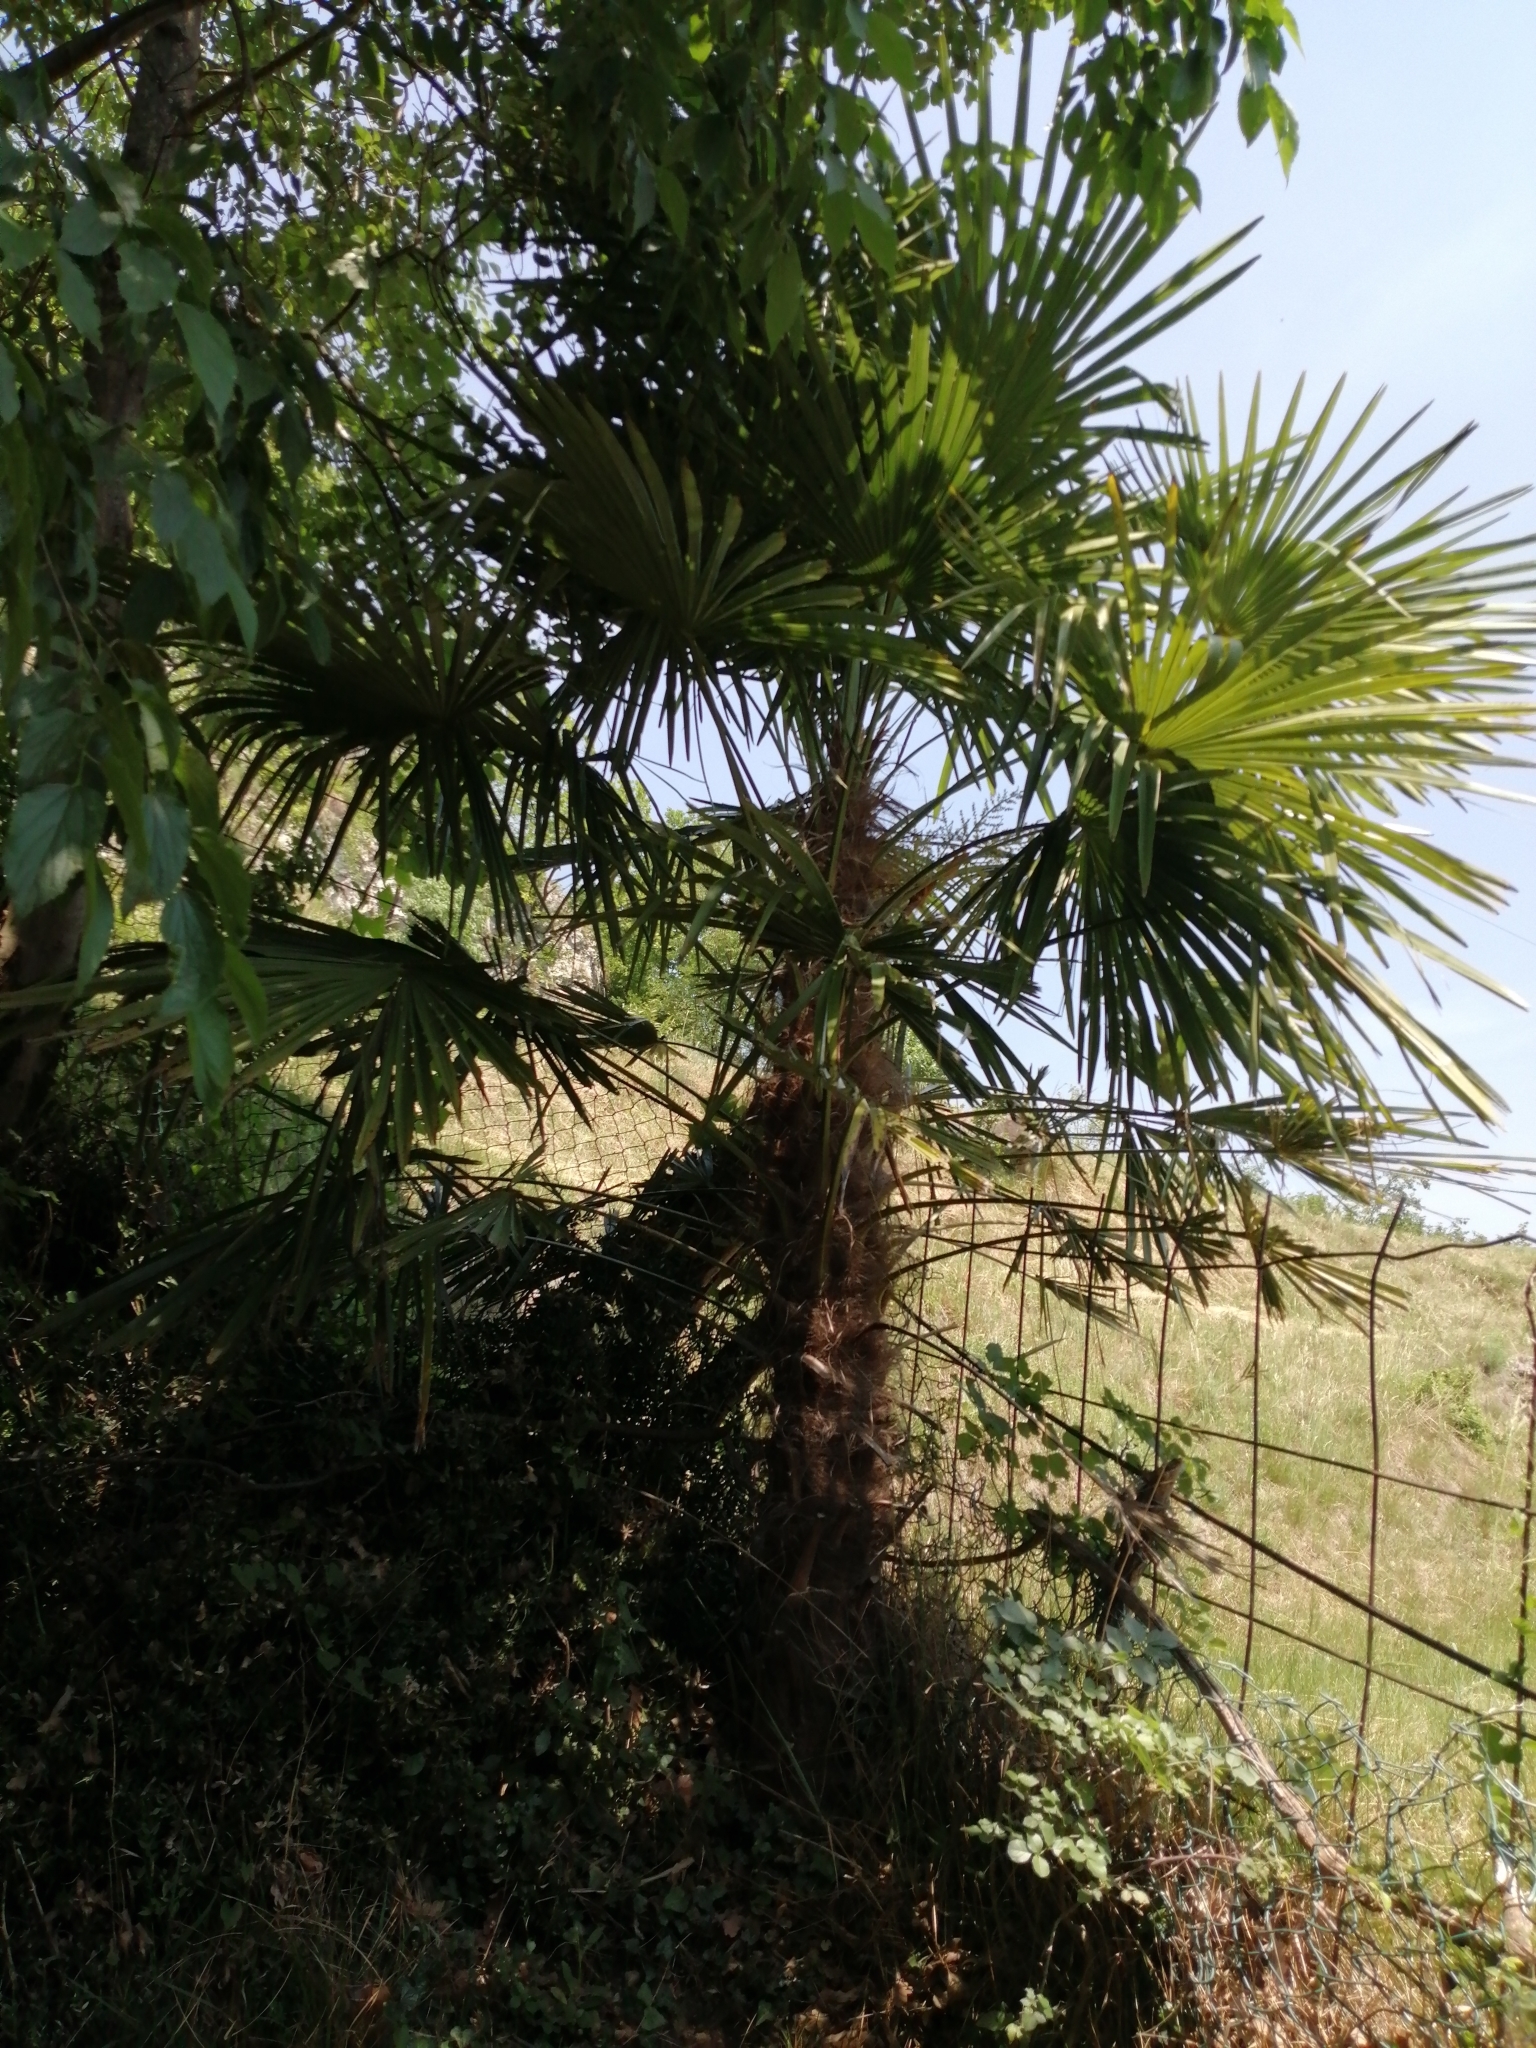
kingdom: Plantae
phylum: Tracheophyta
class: Liliopsida
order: Arecales
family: Arecaceae
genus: Trachycarpus
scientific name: Trachycarpus fortunei
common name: Chusan palm
